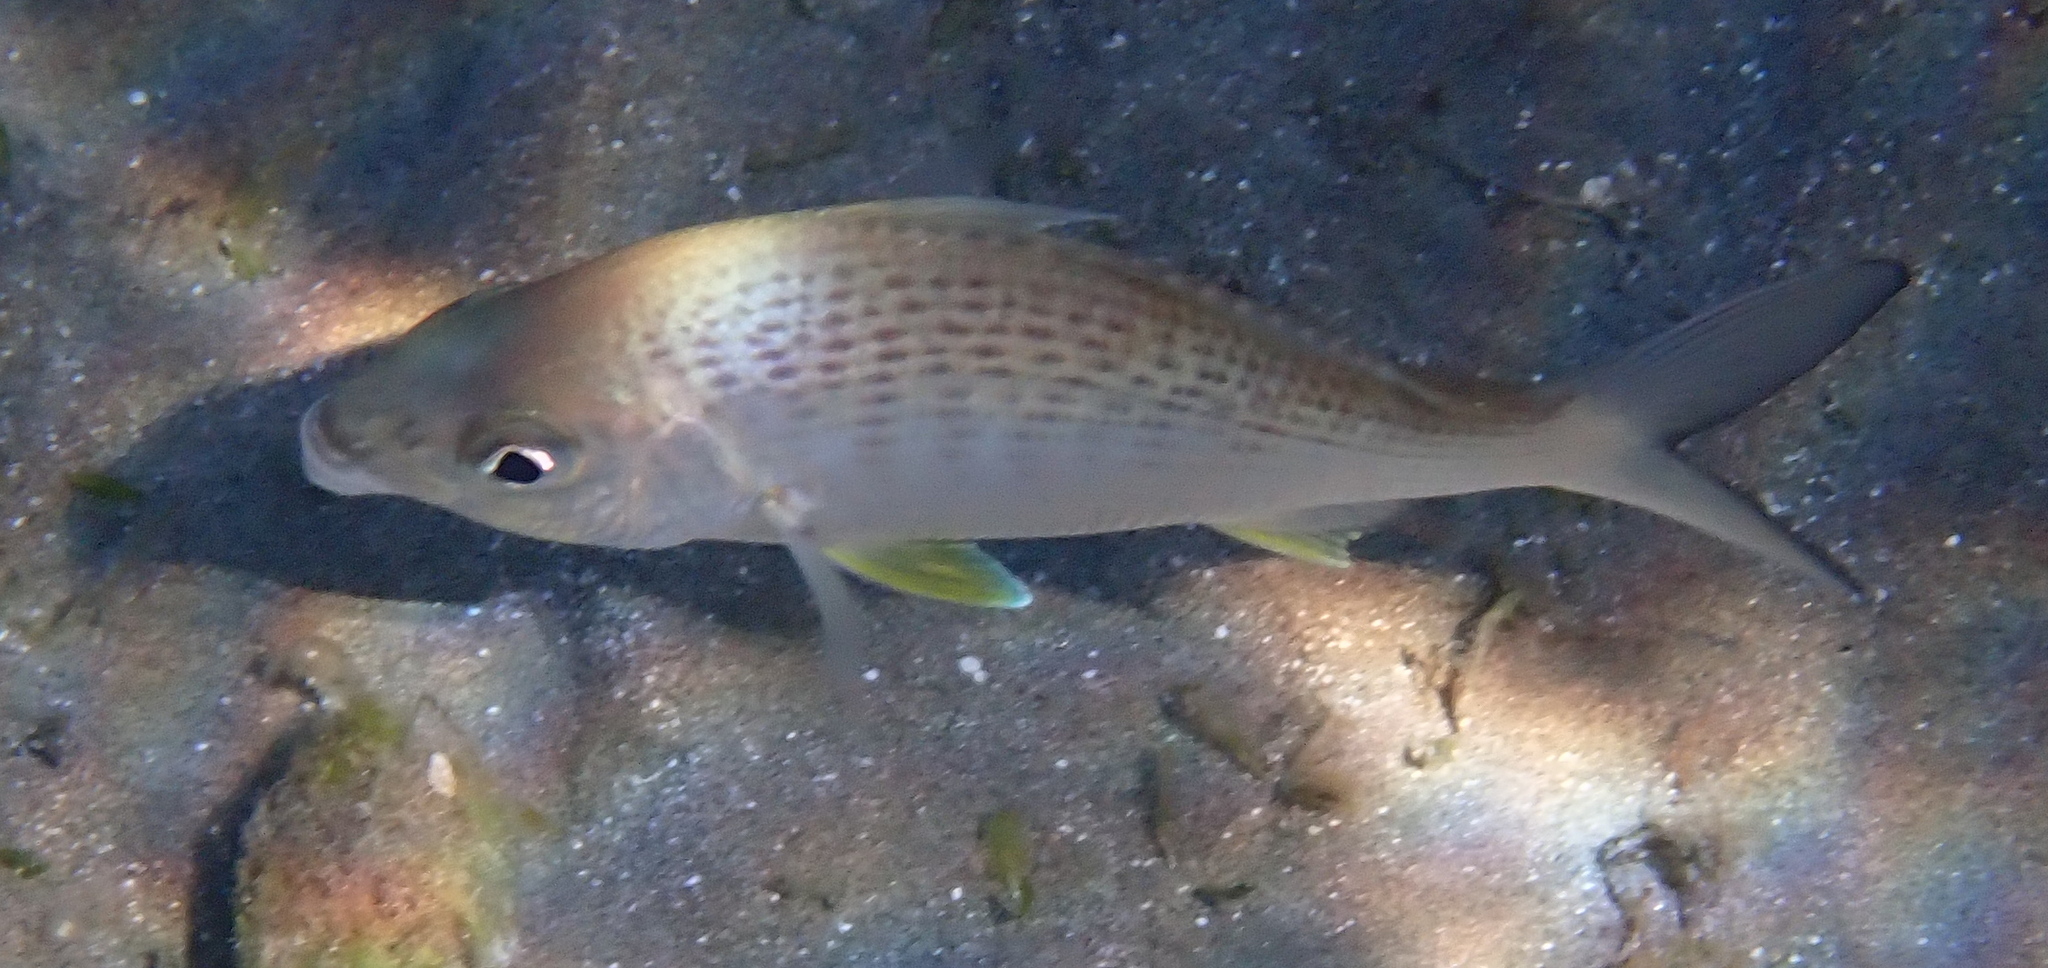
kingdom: Animalia
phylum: Chordata
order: Perciformes
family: Gerreidae
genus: Gerres
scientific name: Gerres longirostris
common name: Strongspine silver-biddy
